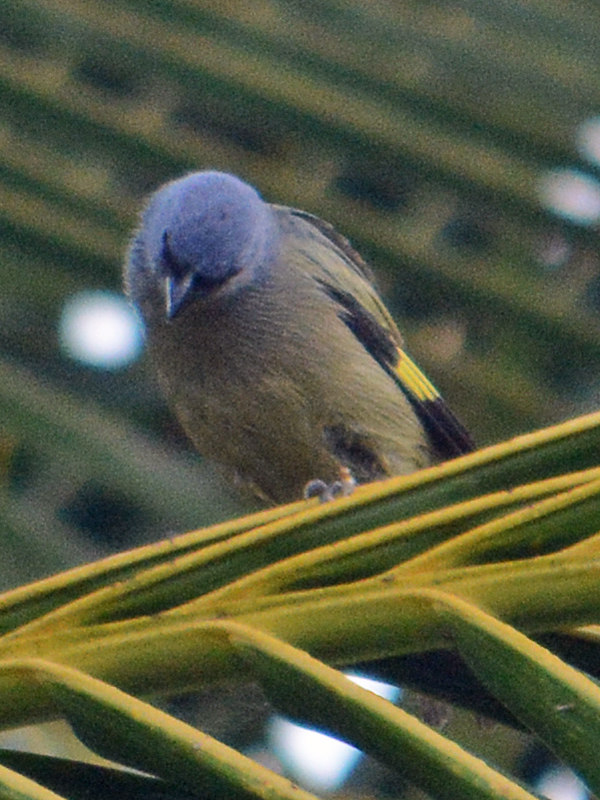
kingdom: Animalia
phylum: Chordata
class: Aves
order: Passeriformes
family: Thraupidae
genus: Thraupis
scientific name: Thraupis abbas
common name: Yellow-winged tanager
